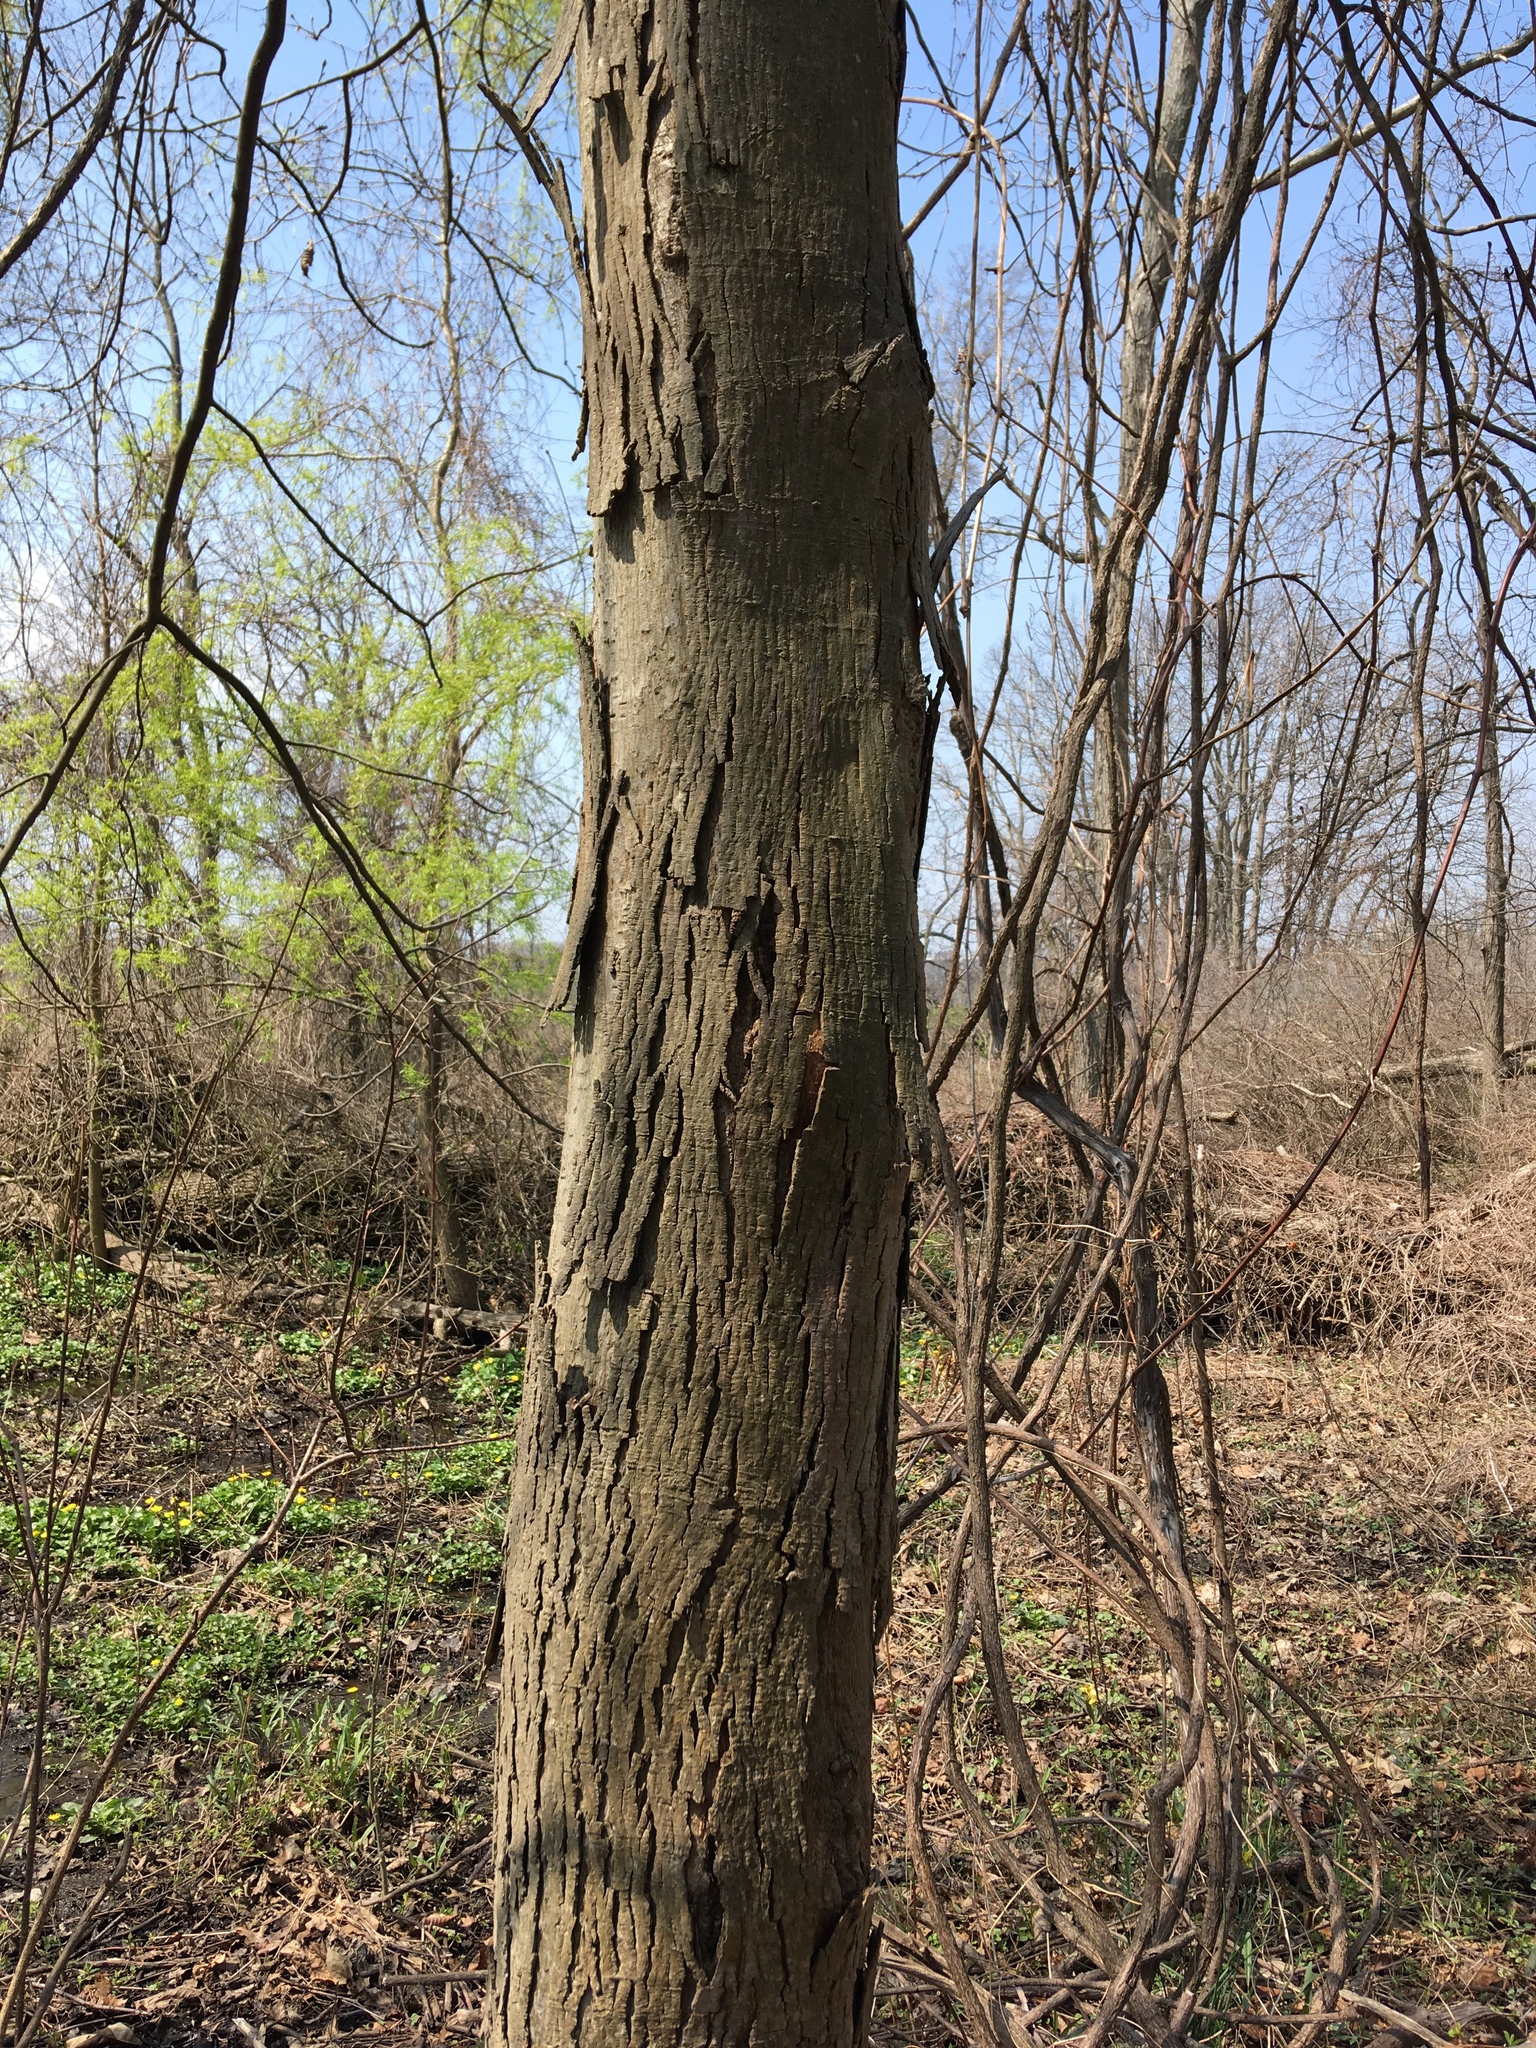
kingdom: Plantae
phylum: Tracheophyta
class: Magnoliopsida
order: Fagales
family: Juglandaceae
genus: Carya
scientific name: Carya ovata
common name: Shagbark hickory
